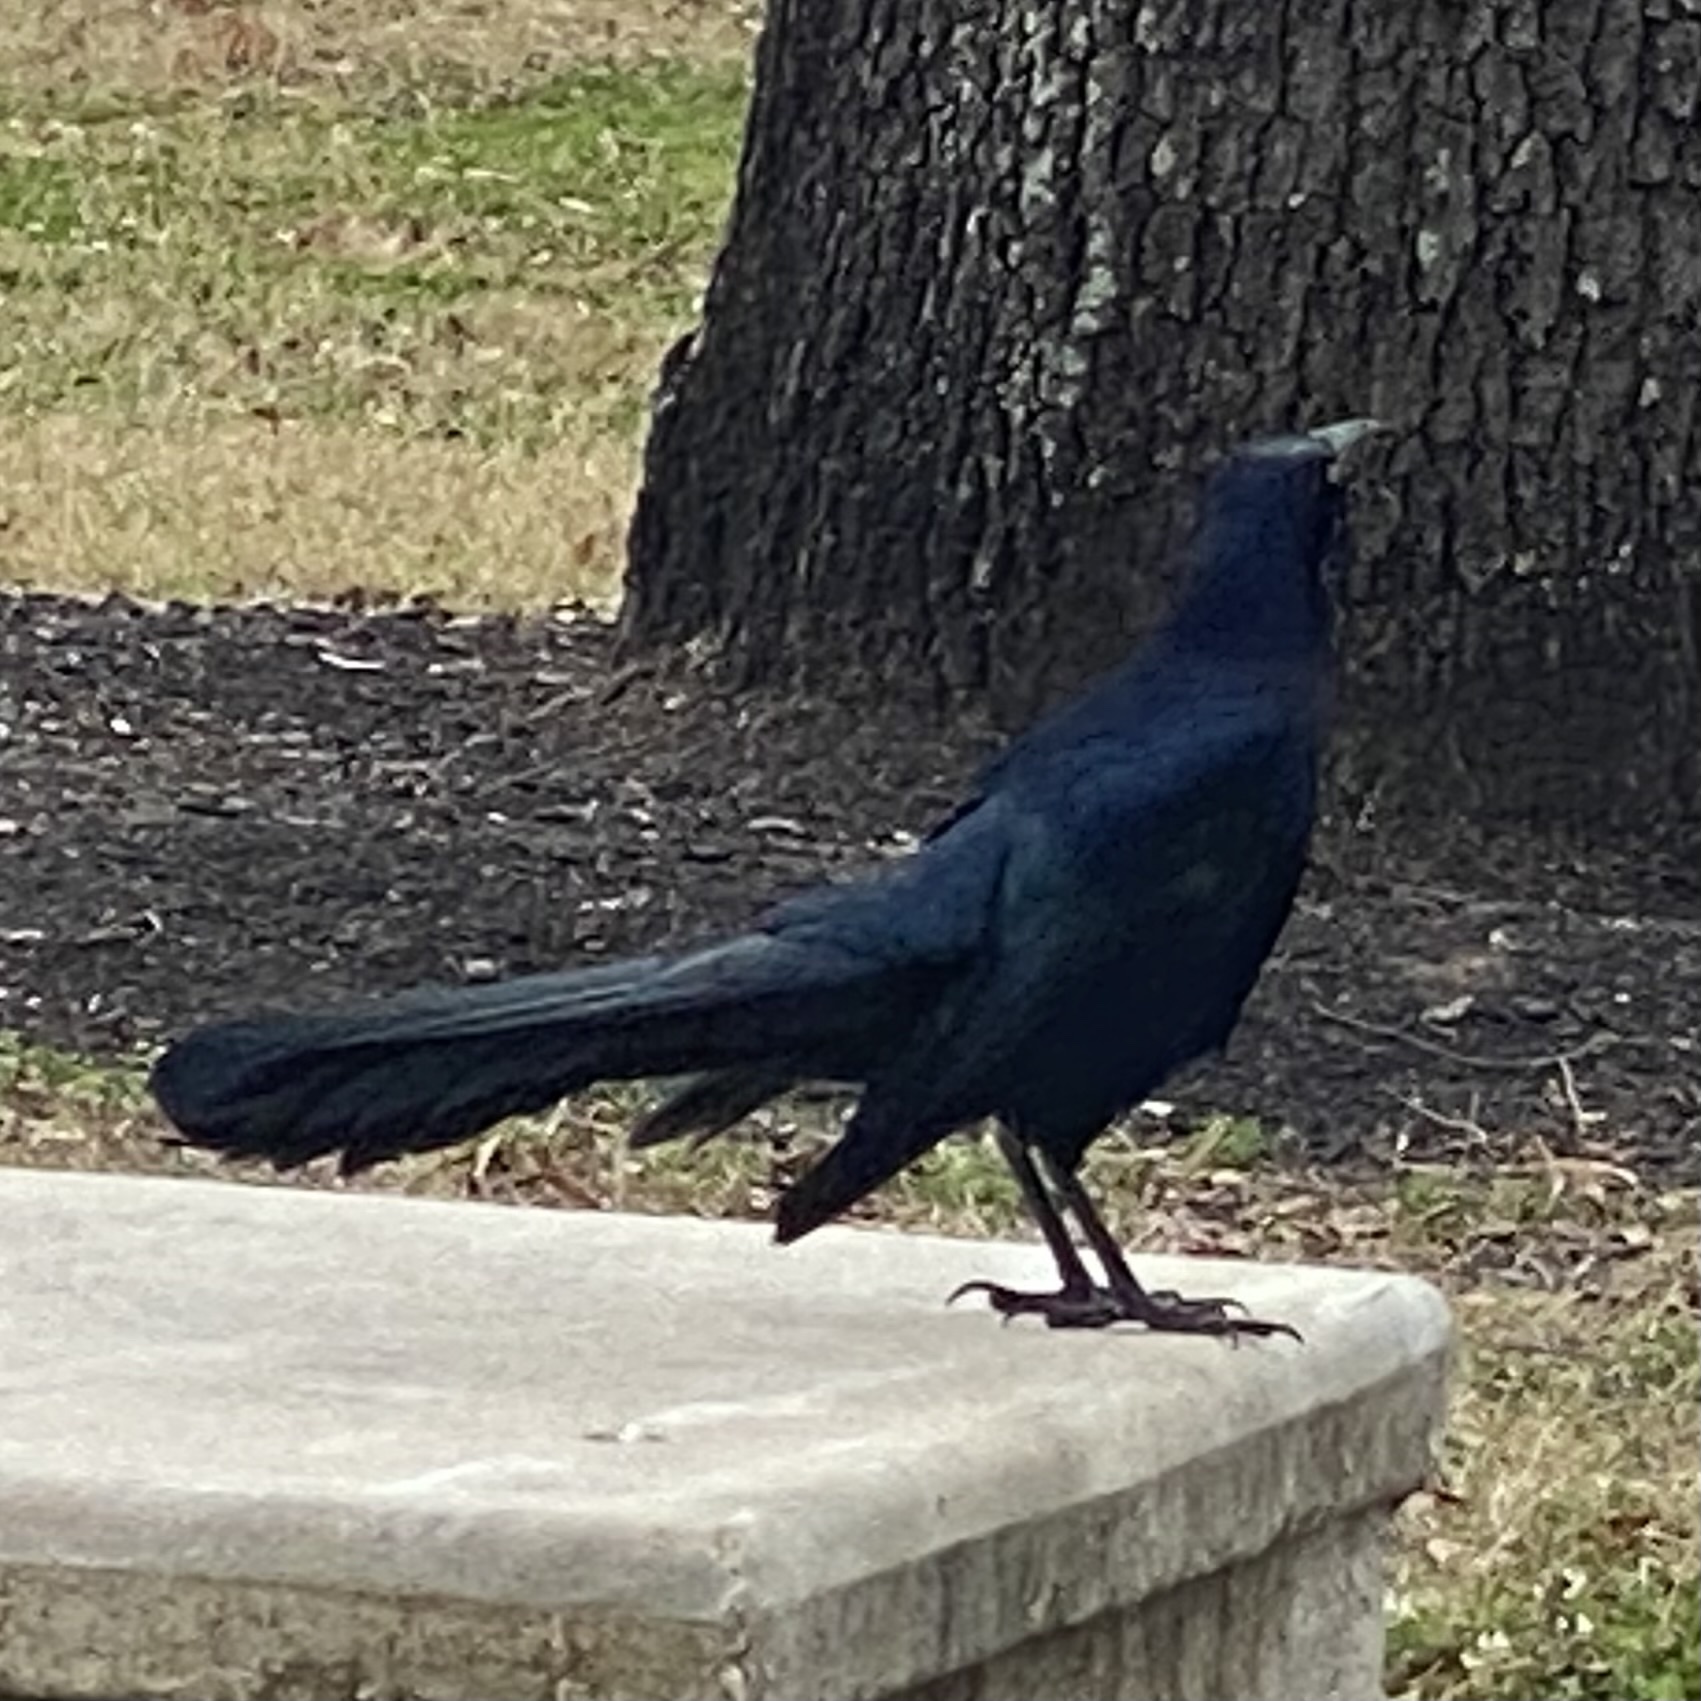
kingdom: Animalia
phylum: Chordata
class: Aves
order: Passeriformes
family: Icteridae
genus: Quiscalus
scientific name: Quiscalus mexicanus
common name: Great-tailed grackle
